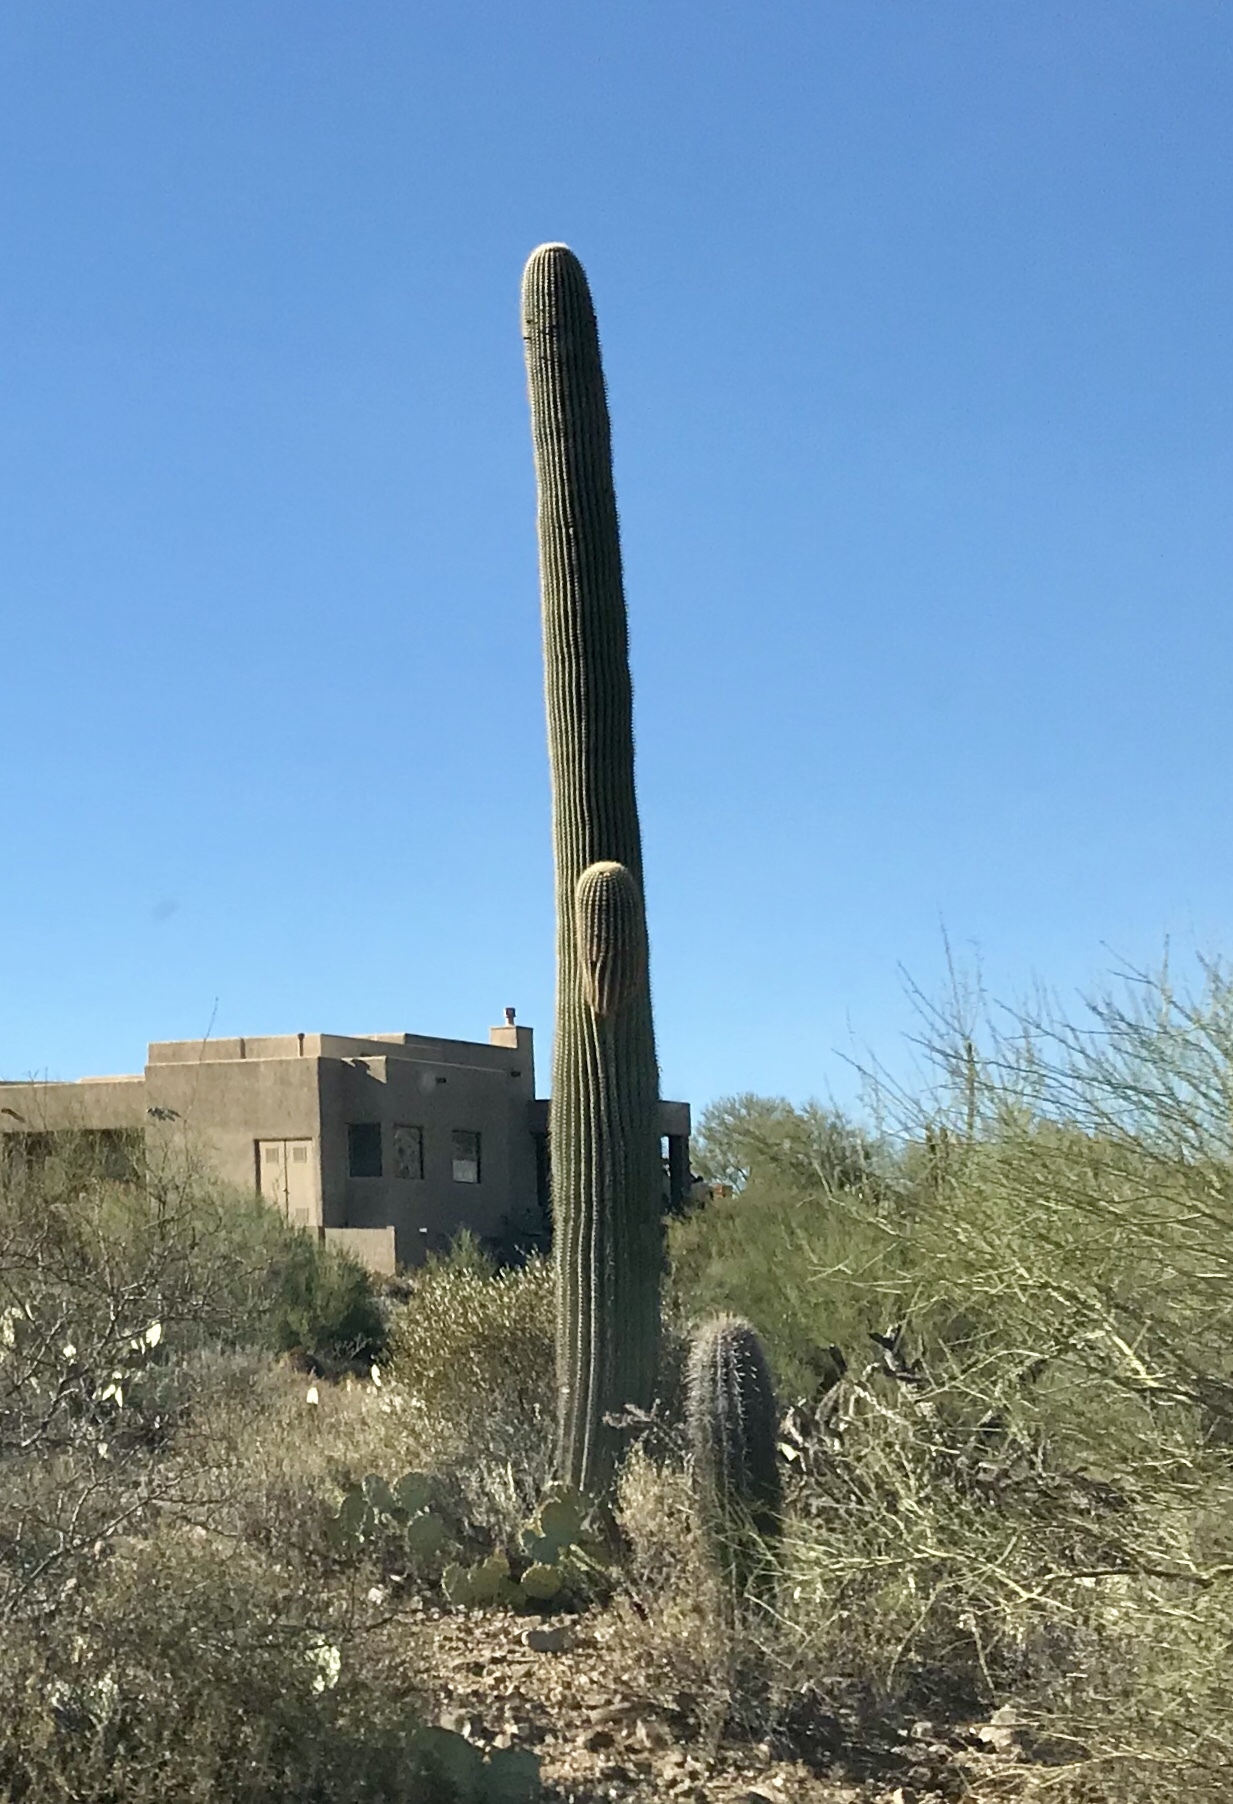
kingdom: Plantae
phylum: Tracheophyta
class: Magnoliopsida
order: Caryophyllales
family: Cactaceae
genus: Carnegiea
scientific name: Carnegiea gigantea
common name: Saguaro
